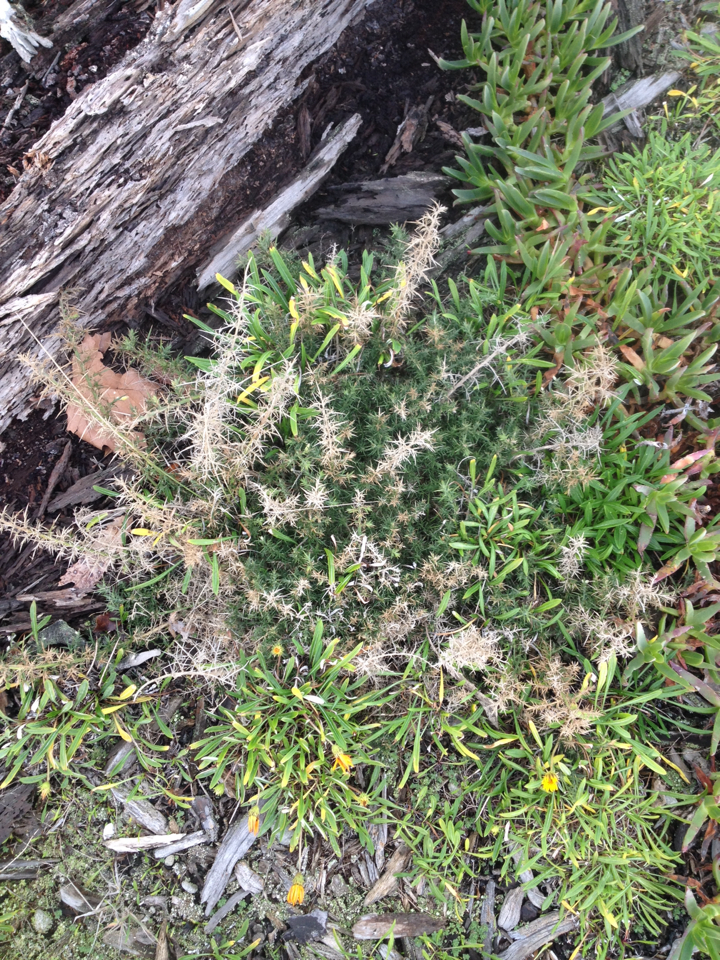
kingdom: Plantae
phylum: Tracheophyta
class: Magnoliopsida
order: Fabales
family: Fabaceae
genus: Ulex
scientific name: Ulex europaeus
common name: Common gorse
